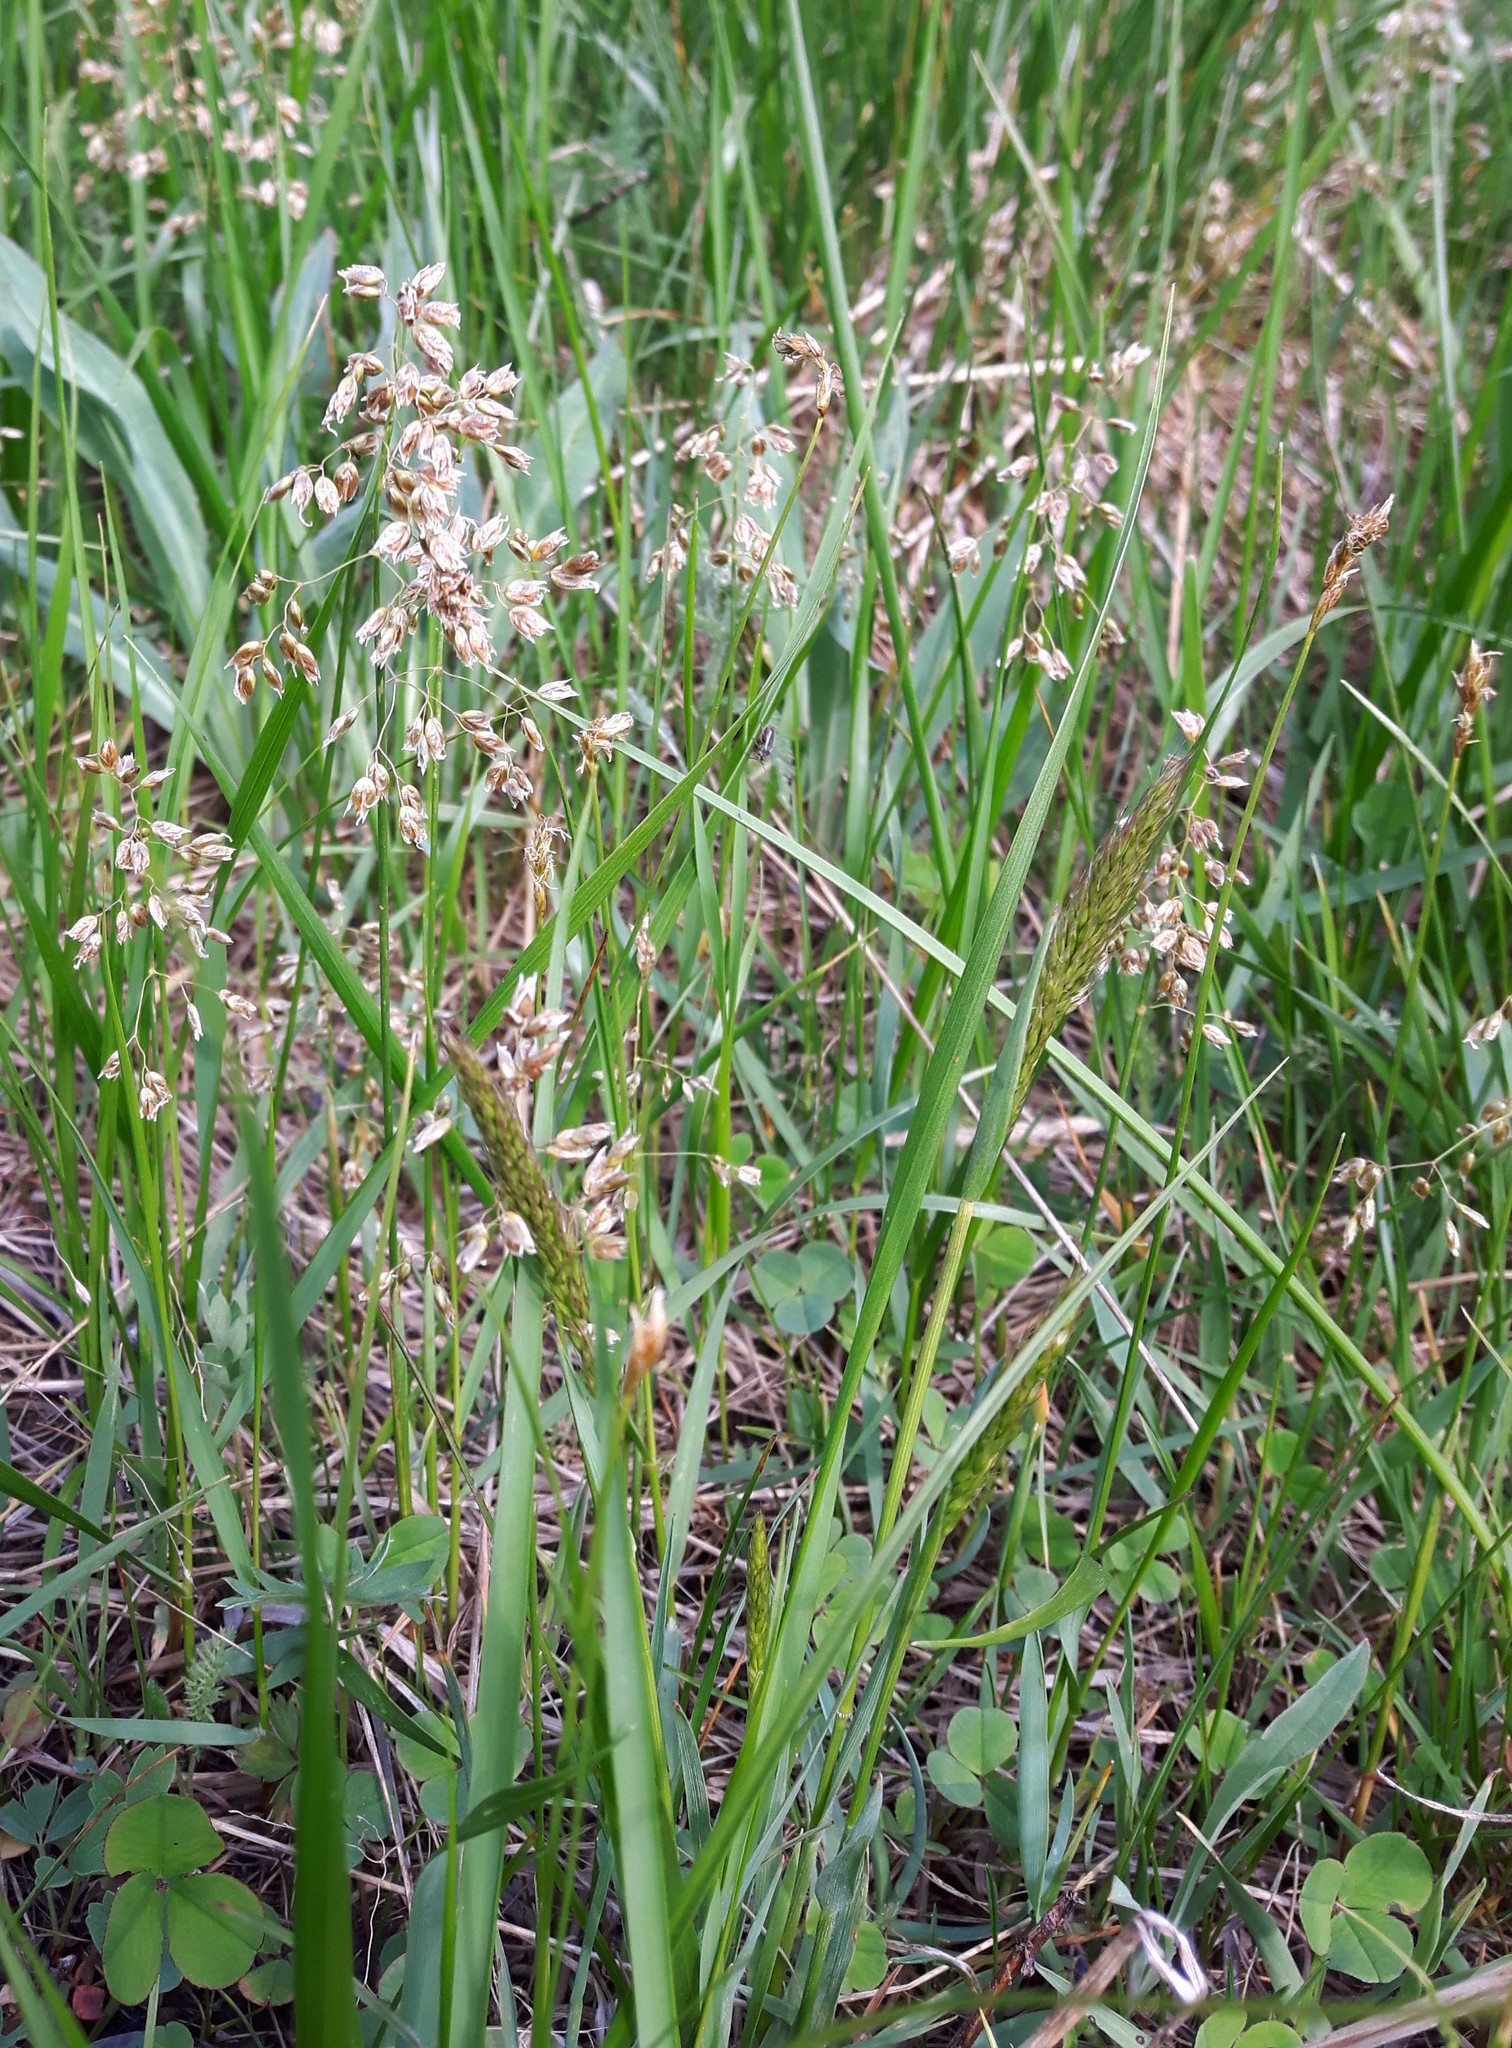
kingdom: Plantae
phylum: Tracheophyta
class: Liliopsida
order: Poales
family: Poaceae
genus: Anthoxanthum
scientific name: Anthoxanthum nitens
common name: Holy grass
